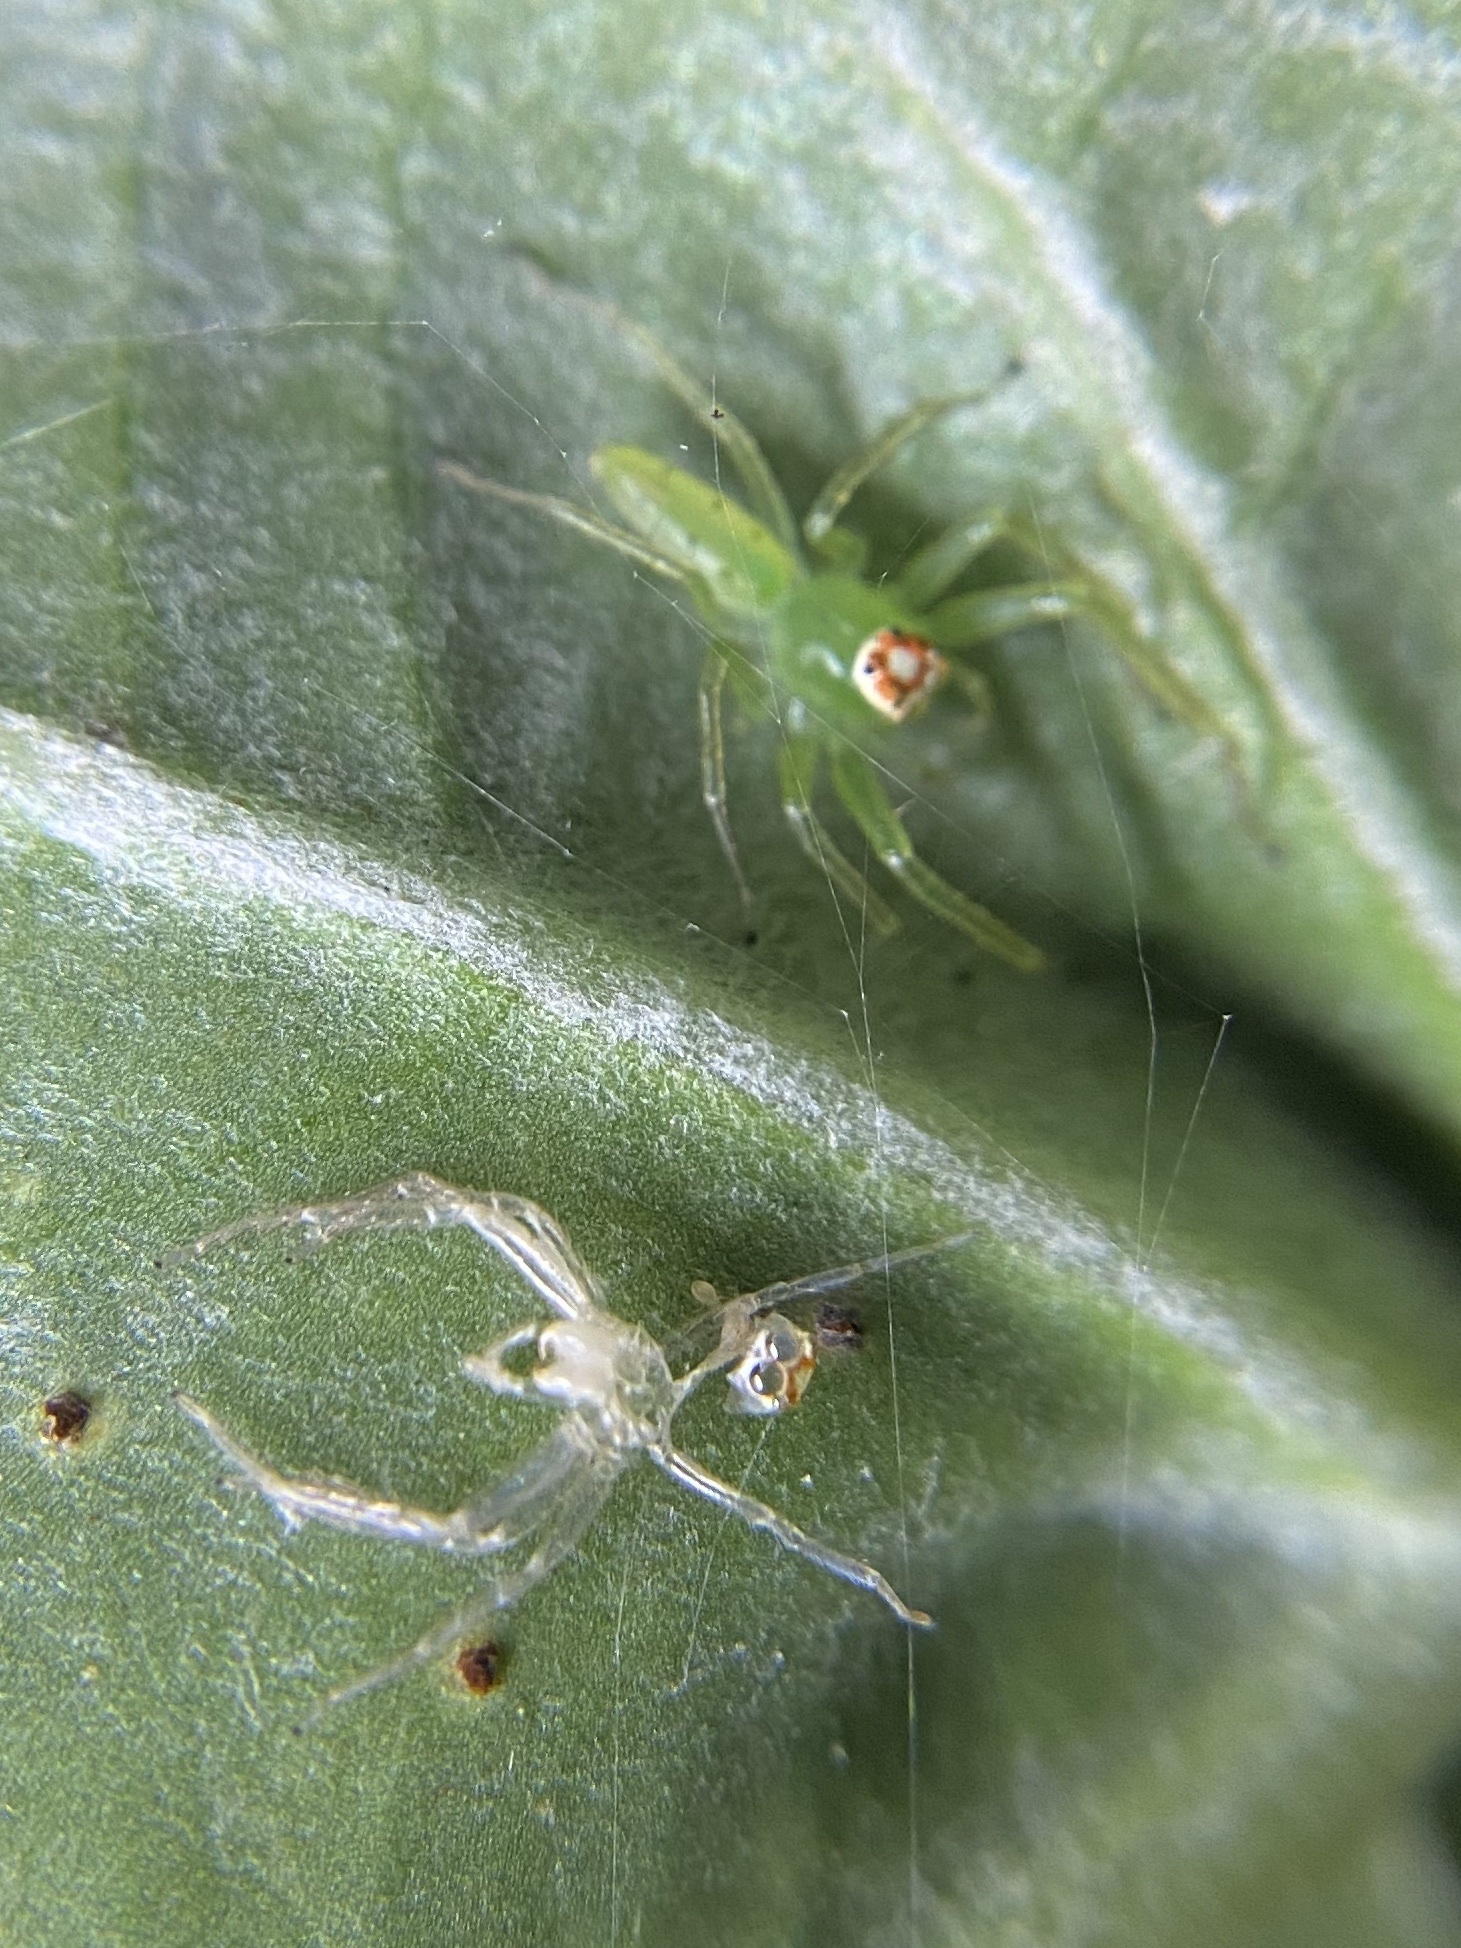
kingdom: Animalia
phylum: Arthropoda
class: Arachnida
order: Araneae
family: Salticidae
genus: Lyssomanes
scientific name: Lyssomanes viridis
